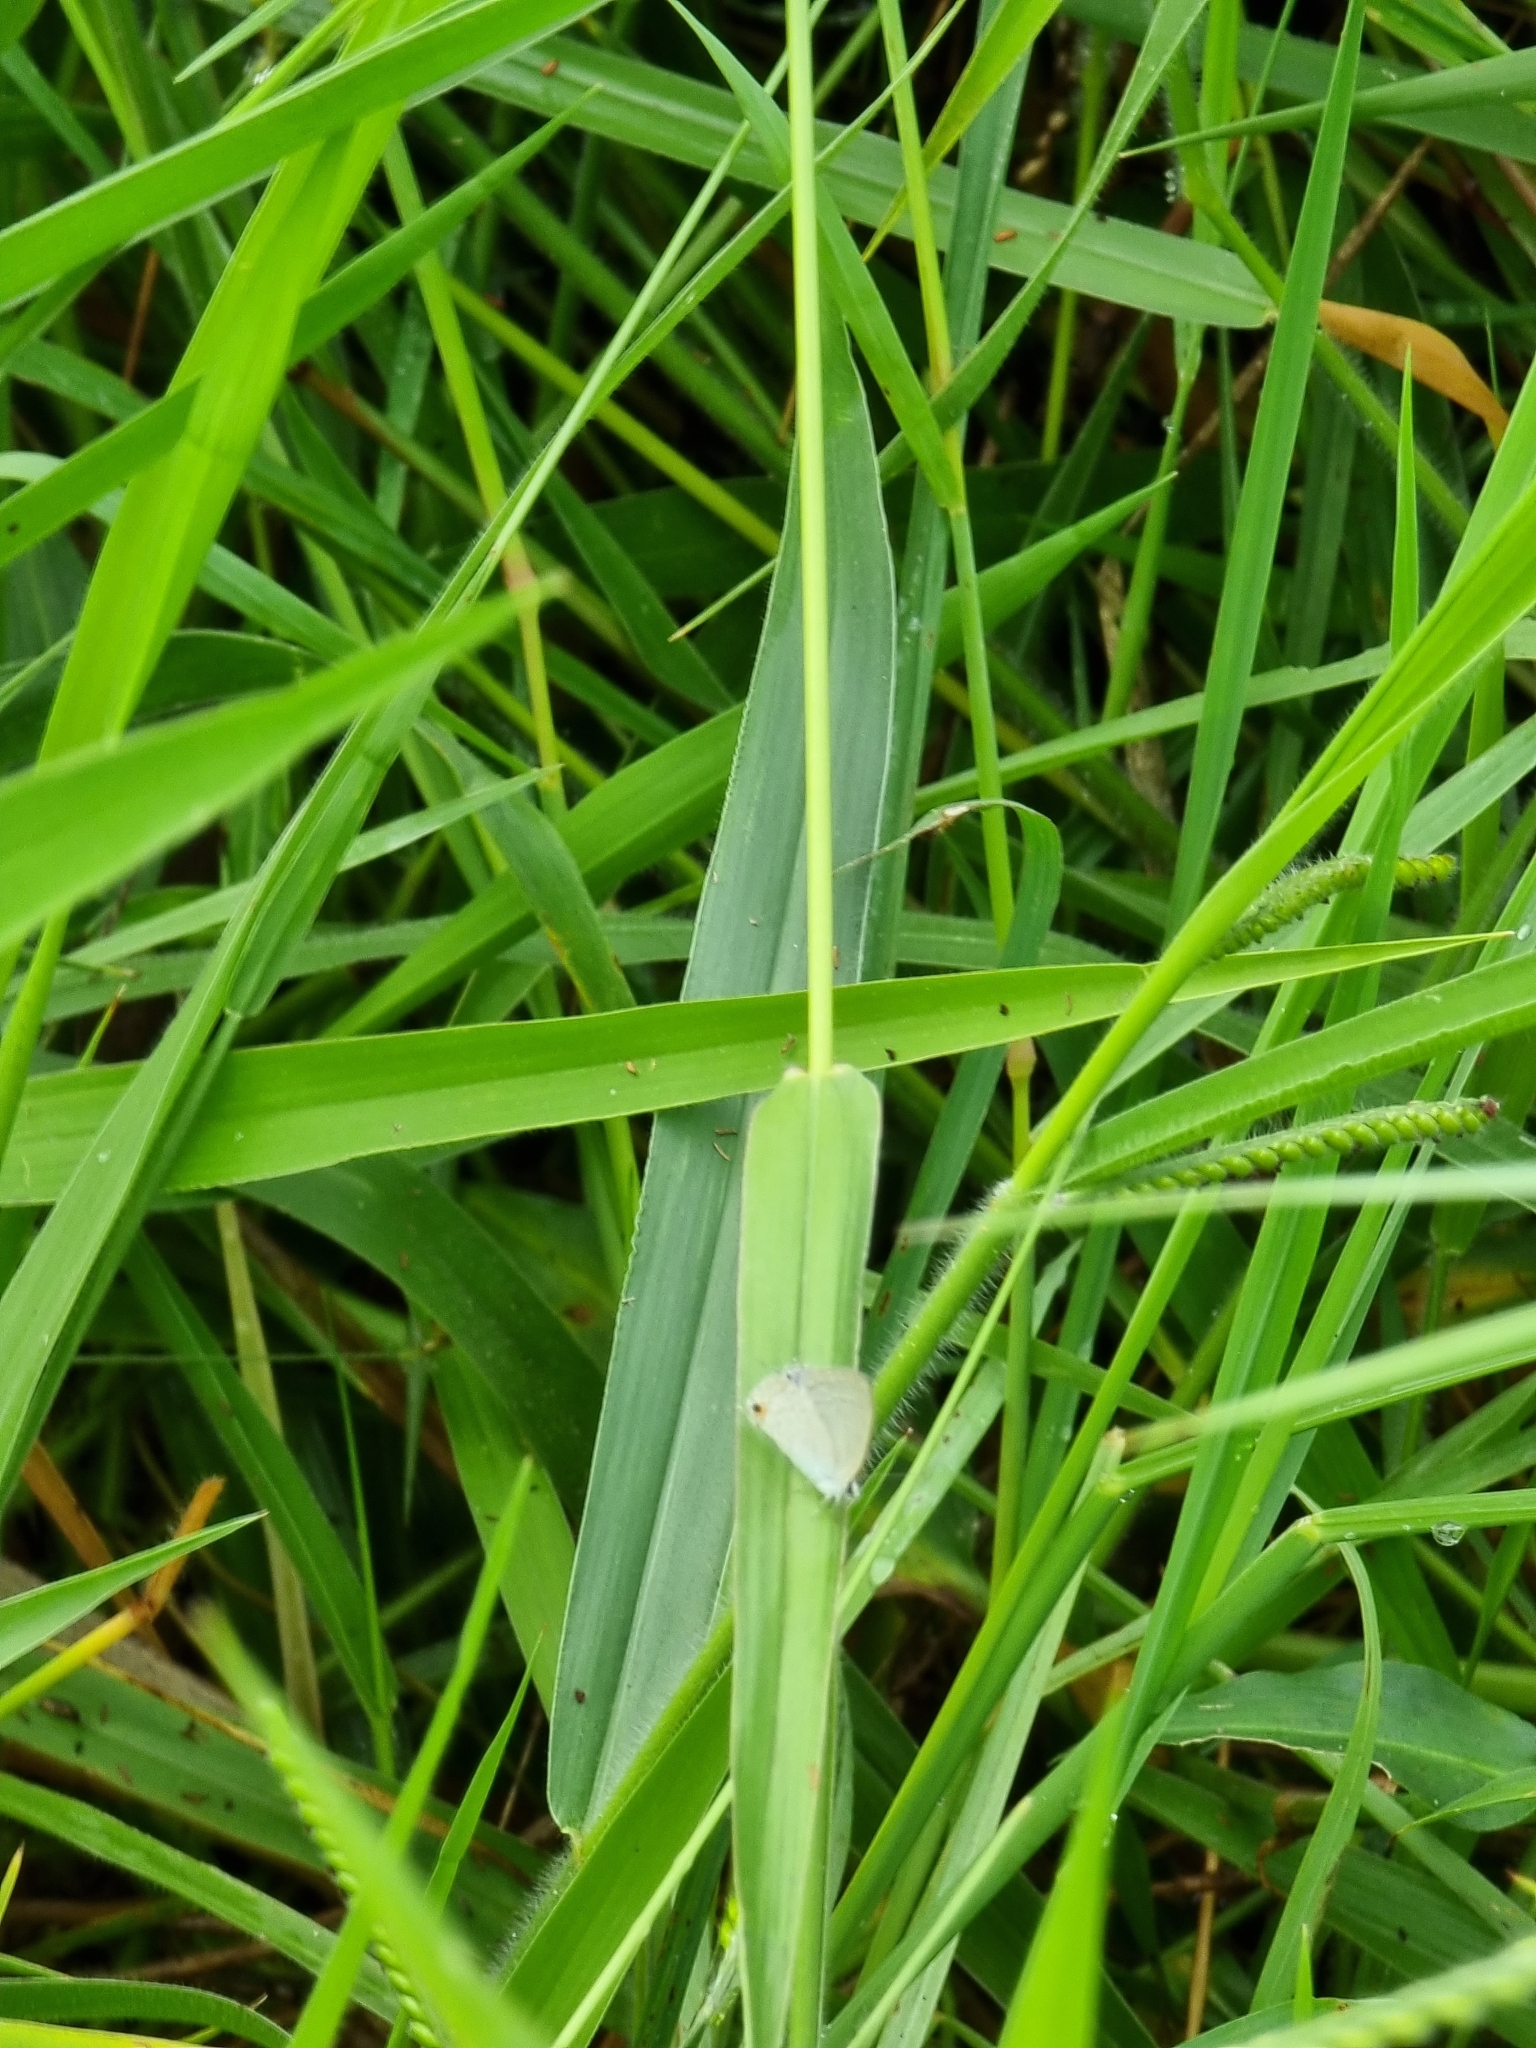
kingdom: Animalia
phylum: Arthropoda
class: Insecta
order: Lepidoptera
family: Lycaenidae
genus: Catochrysops
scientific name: Catochrysops panormus
